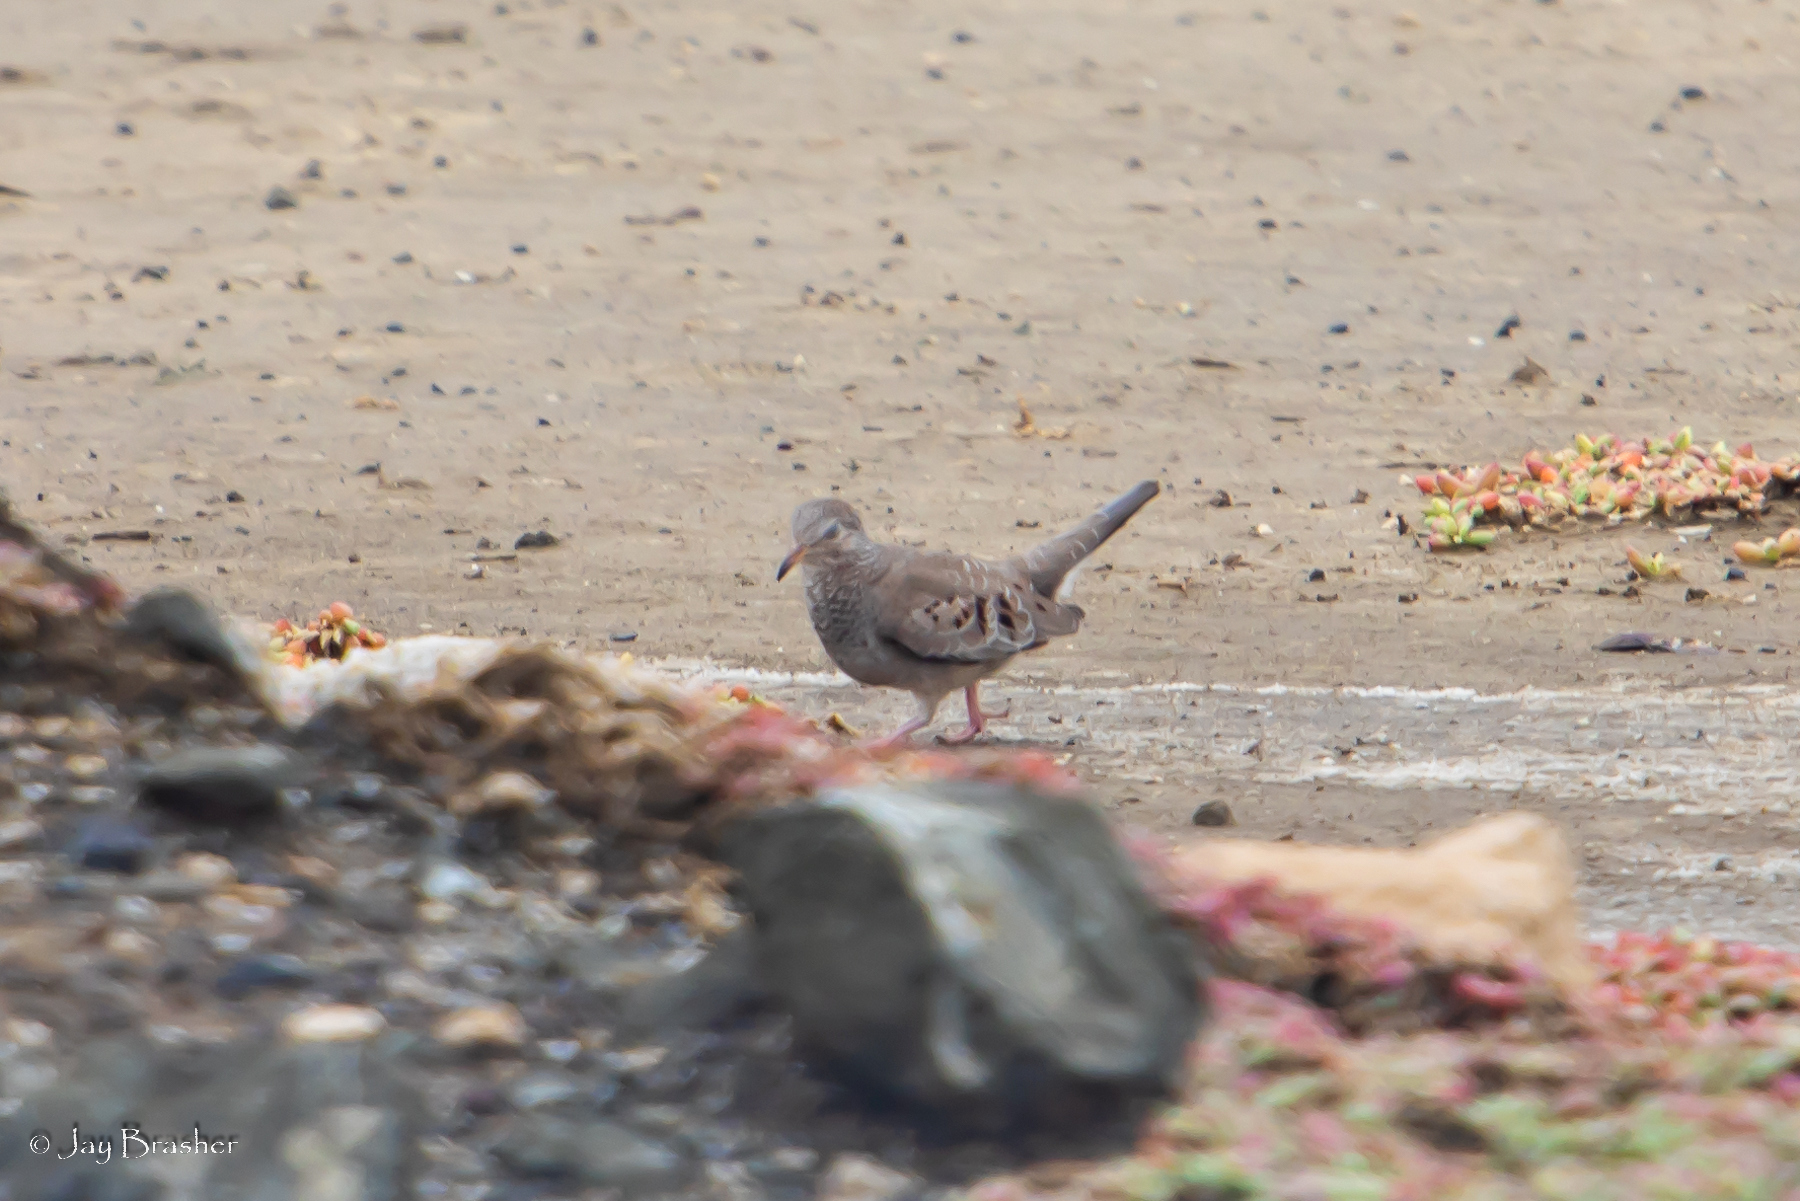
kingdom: Animalia
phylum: Chordata
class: Aves
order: Columbiformes
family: Columbidae
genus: Columbina
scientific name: Columbina passerina
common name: Common ground-dove
